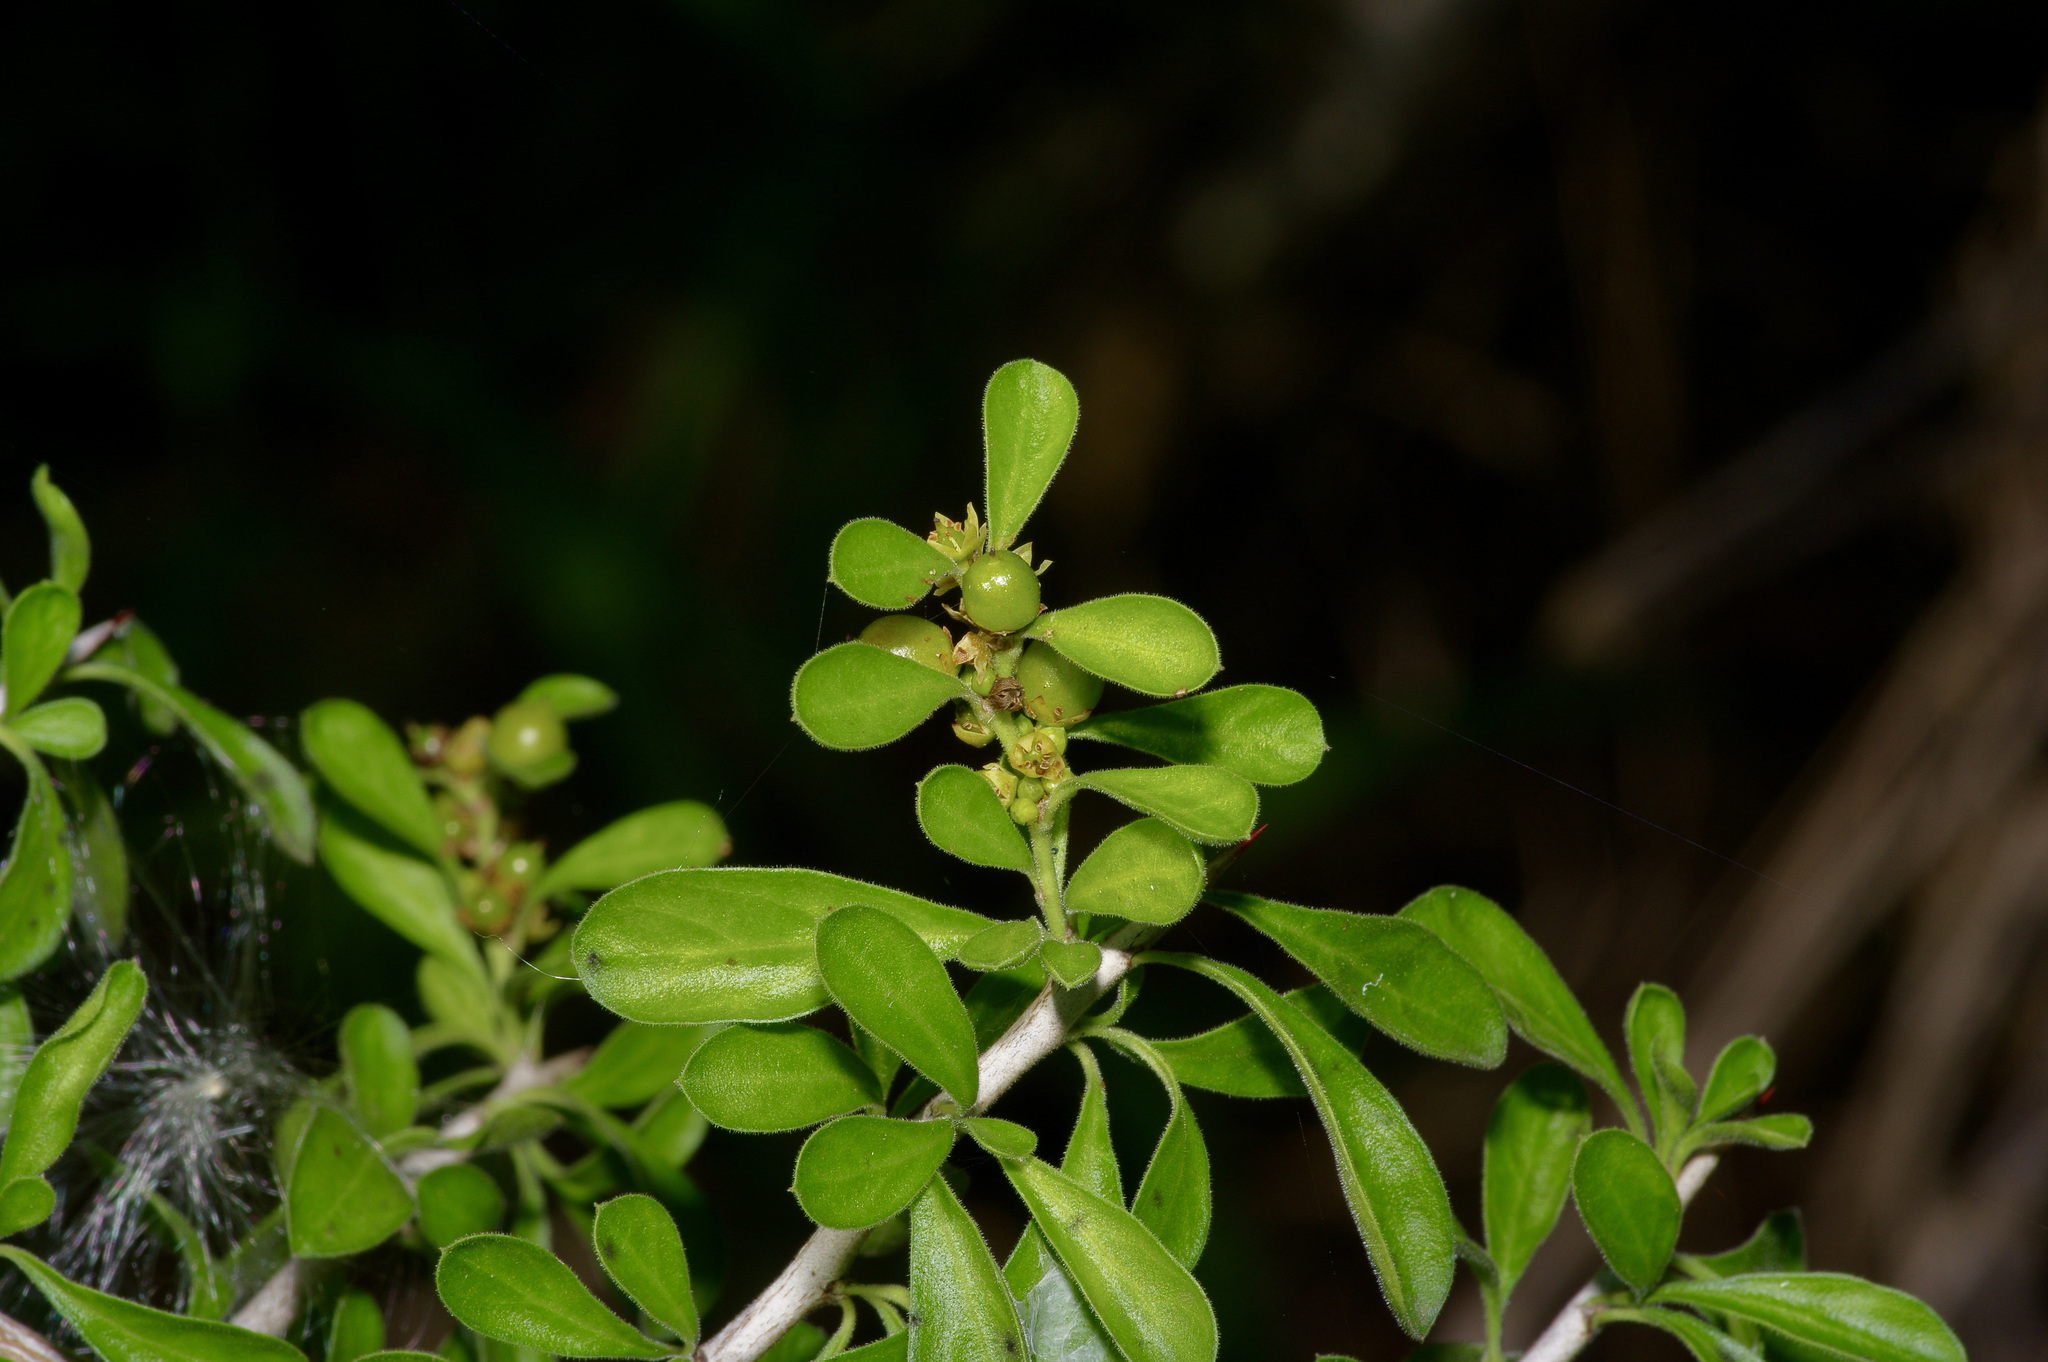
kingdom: Plantae
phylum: Tracheophyta
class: Magnoliopsida
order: Rosales
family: Rhamnaceae
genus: Condalia
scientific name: Condalia hookeri
